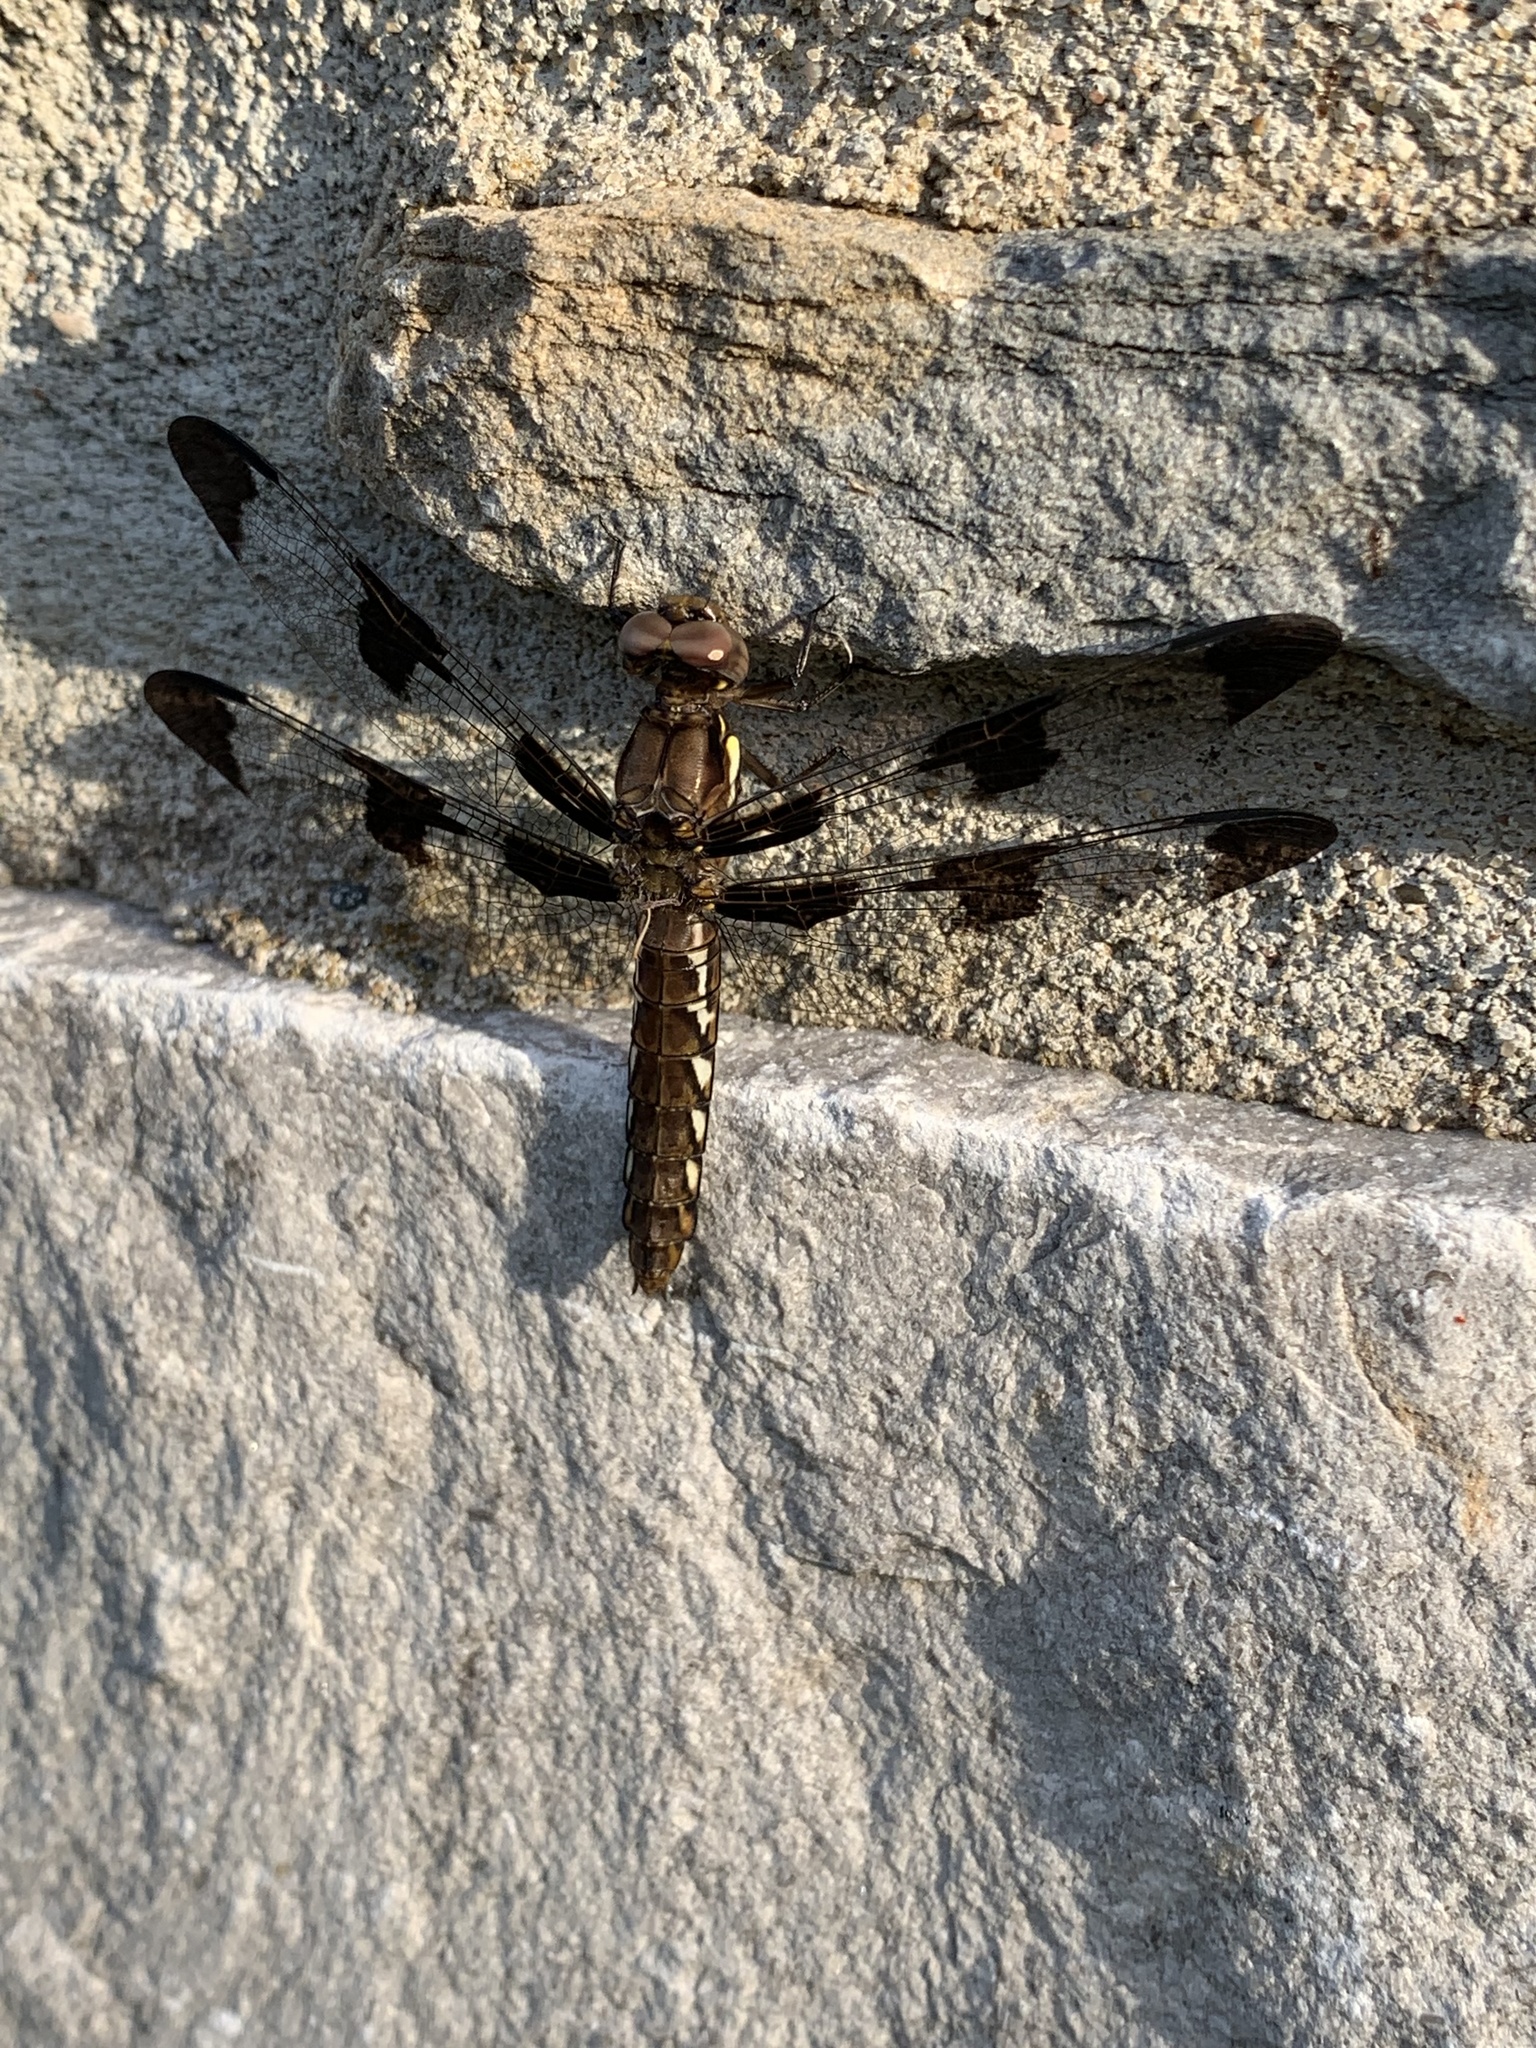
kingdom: Animalia
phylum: Arthropoda
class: Insecta
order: Odonata
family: Libellulidae
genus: Plathemis
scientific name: Plathemis lydia
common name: Common whitetail
